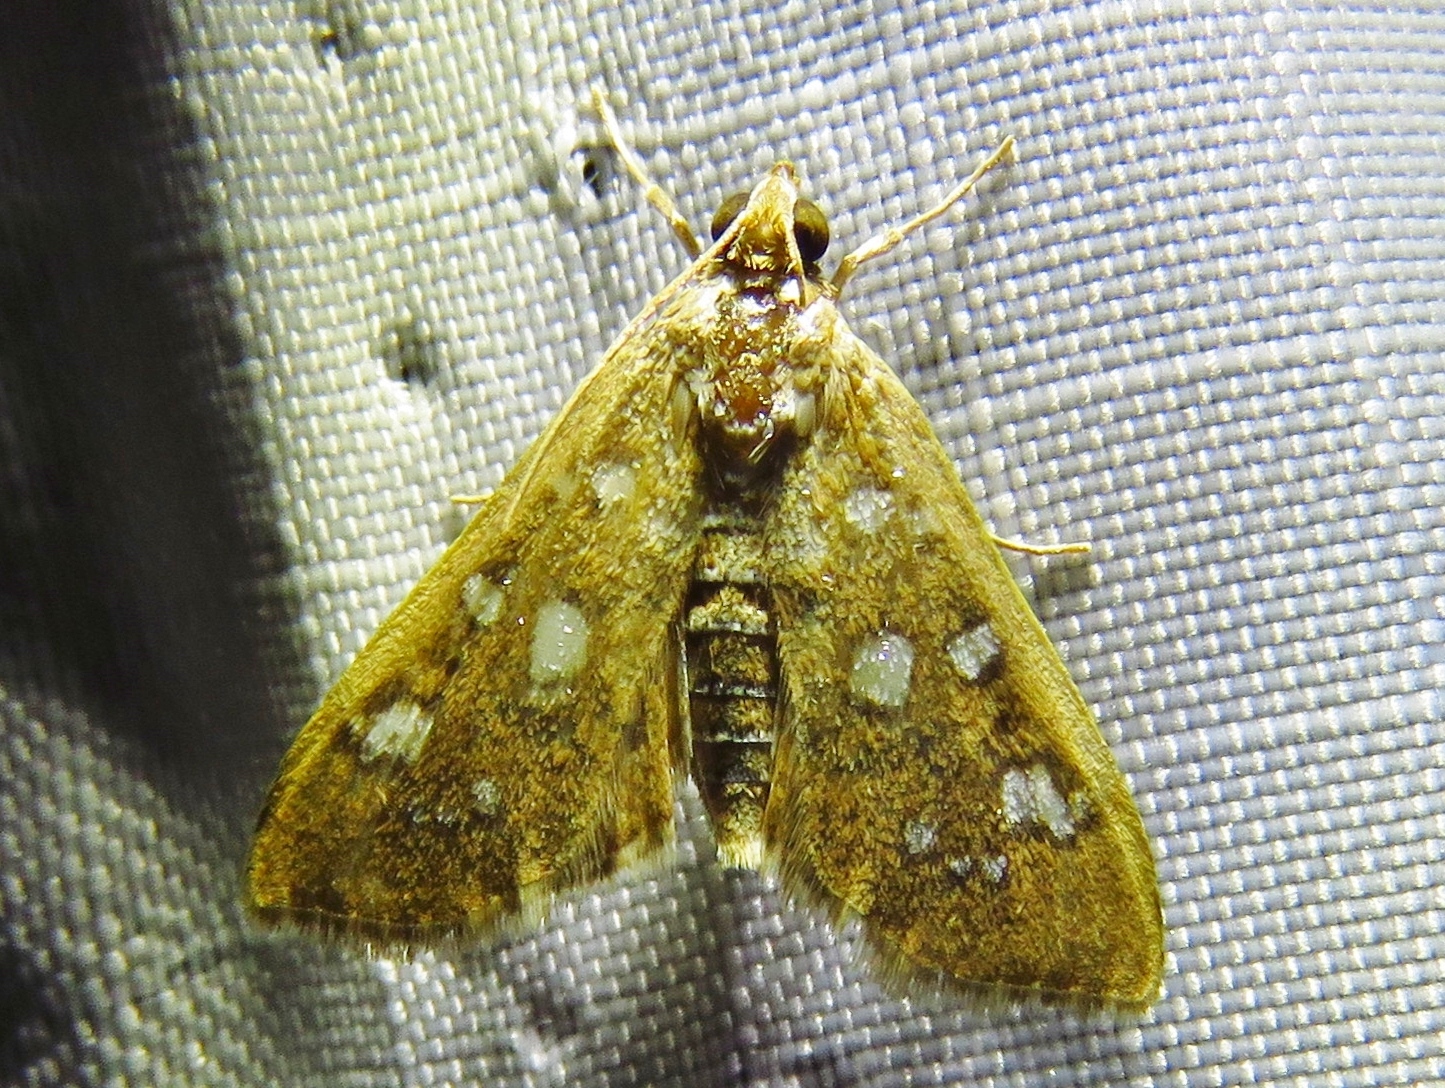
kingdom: Animalia
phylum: Arthropoda
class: Insecta
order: Lepidoptera
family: Crambidae
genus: Samea
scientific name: Samea baccatalis
